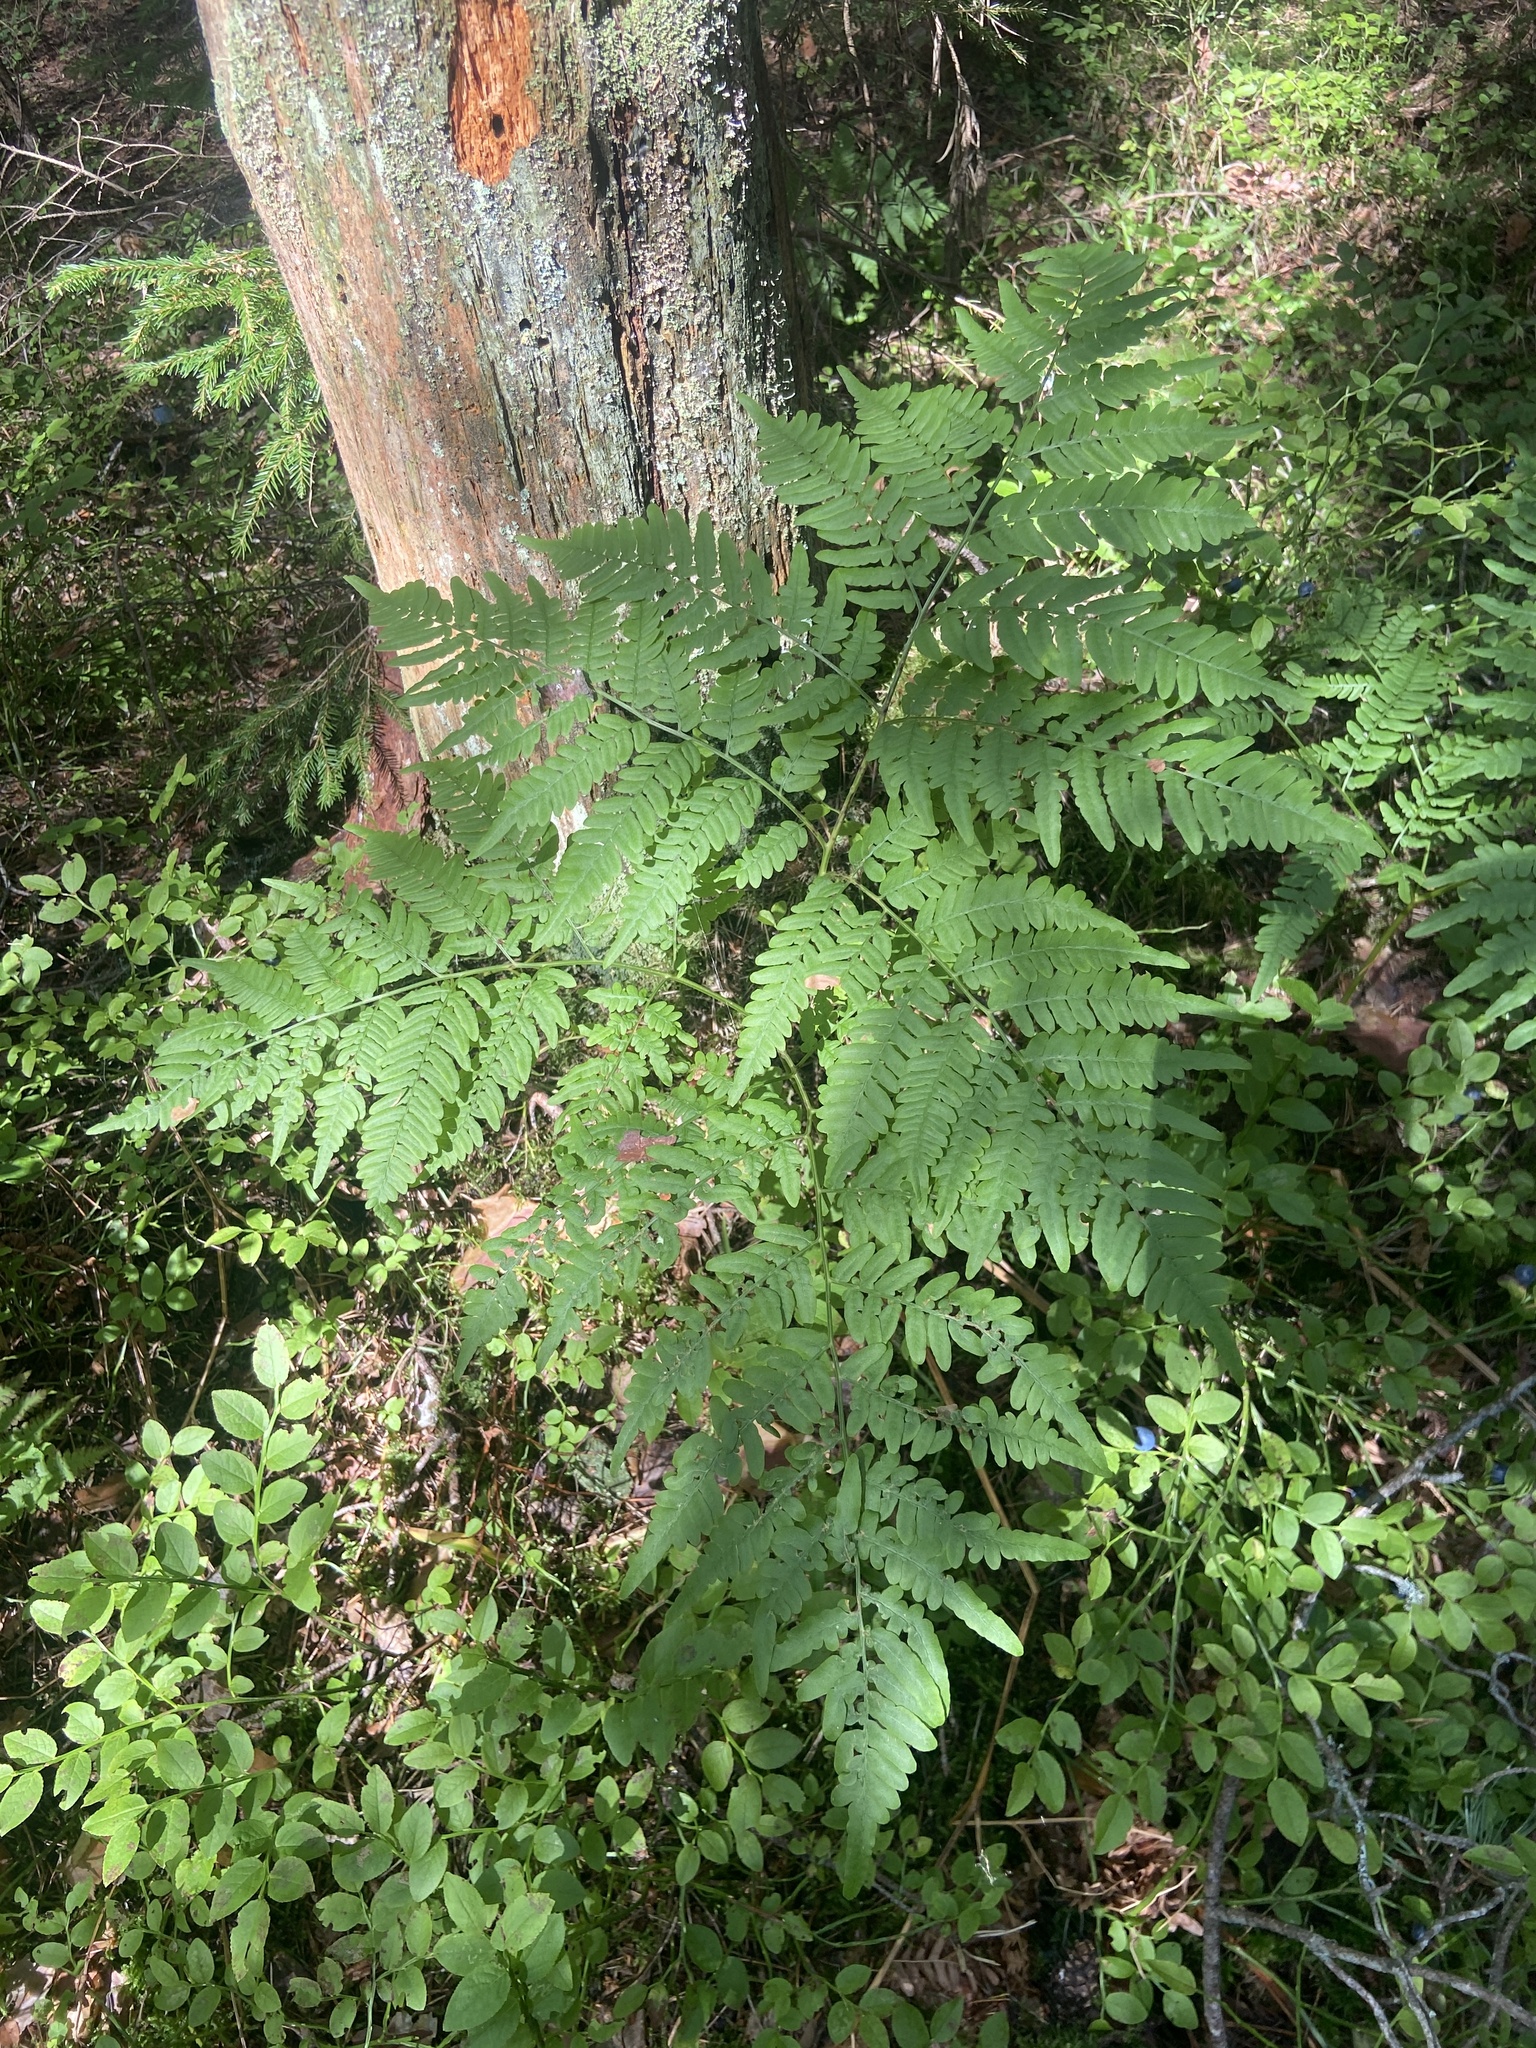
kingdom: Plantae
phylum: Tracheophyta
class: Polypodiopsida
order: Polypodiales
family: Dennstaedtiaceae
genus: Pteridium
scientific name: Pteridium aquilinum
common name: Bracken
